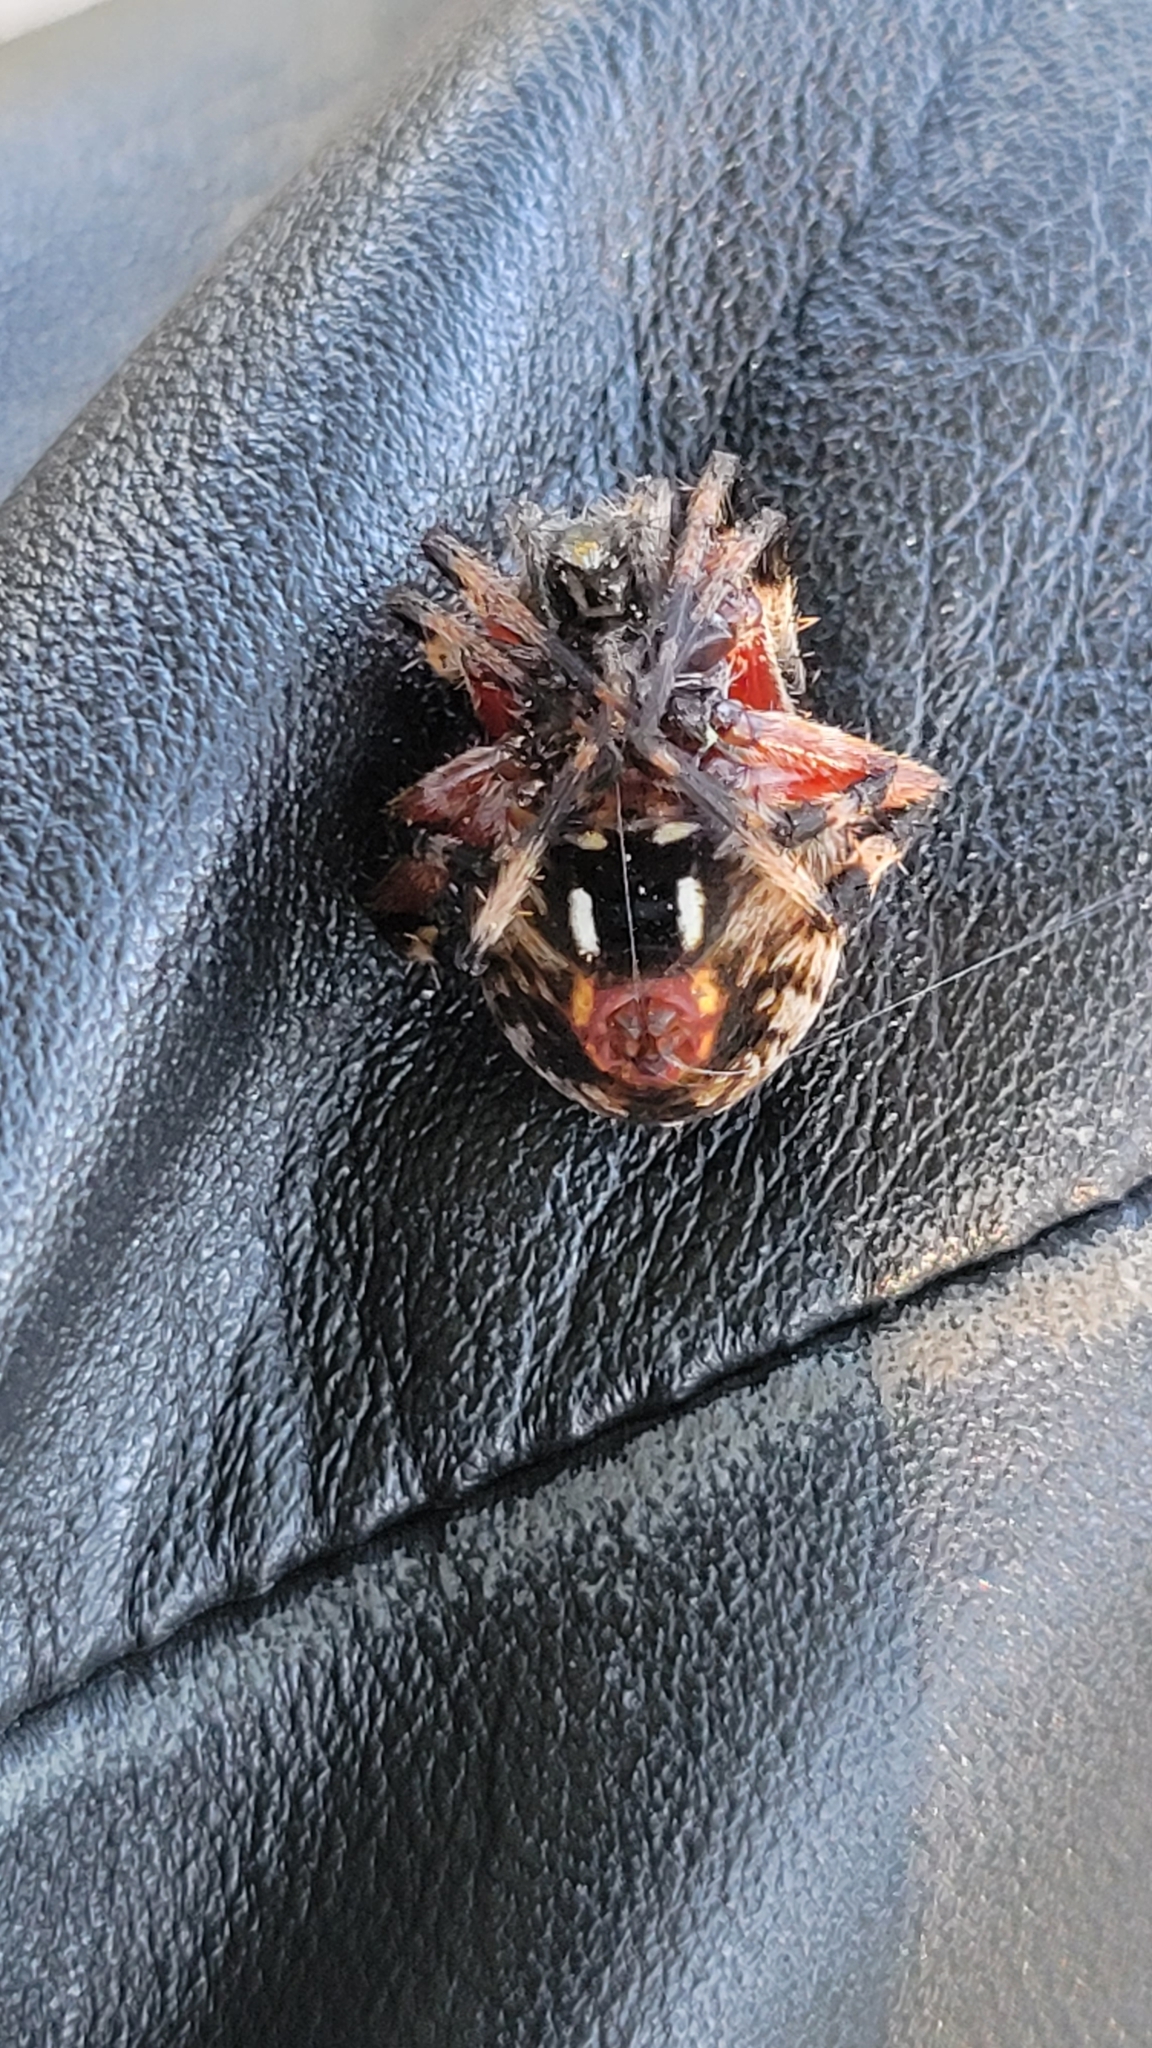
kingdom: Animalia
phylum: Arthropoda
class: Arachnida
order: Araneae
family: Araneidae
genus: Neoscona
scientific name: Neoscona domiciliorum
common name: Red-femured spotted orbweaver
